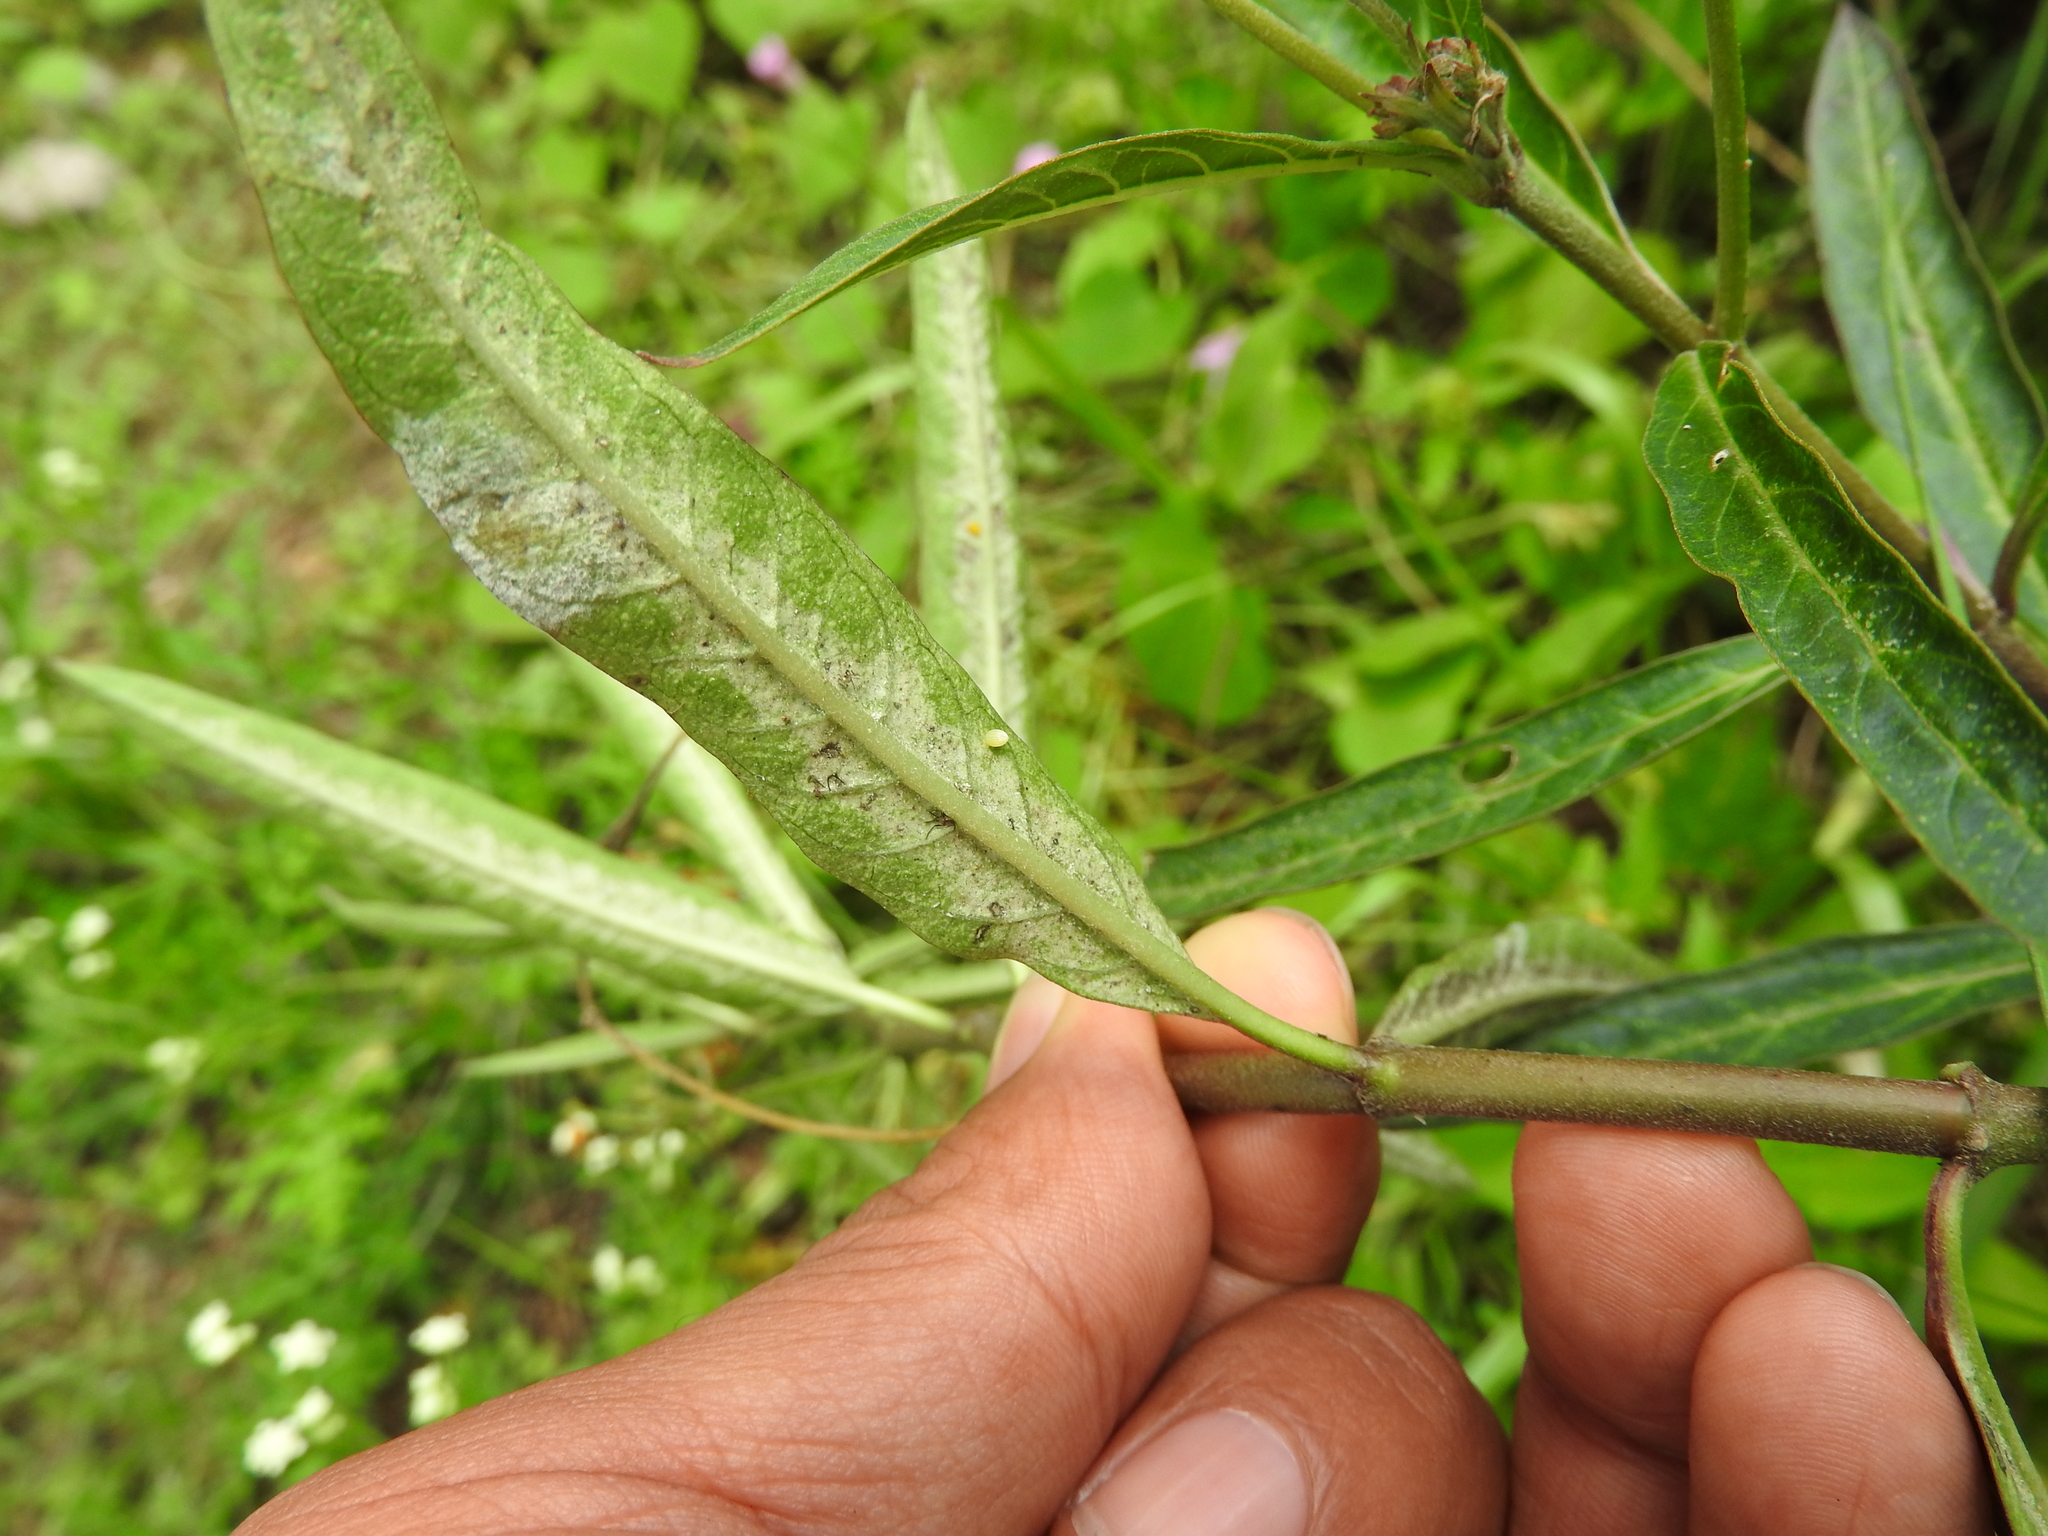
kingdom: Animalia
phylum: Arthropoda
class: Insecta
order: Lepidoptera
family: Nymphalidae
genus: Danaus
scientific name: Danaus plexippus
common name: Monarch
